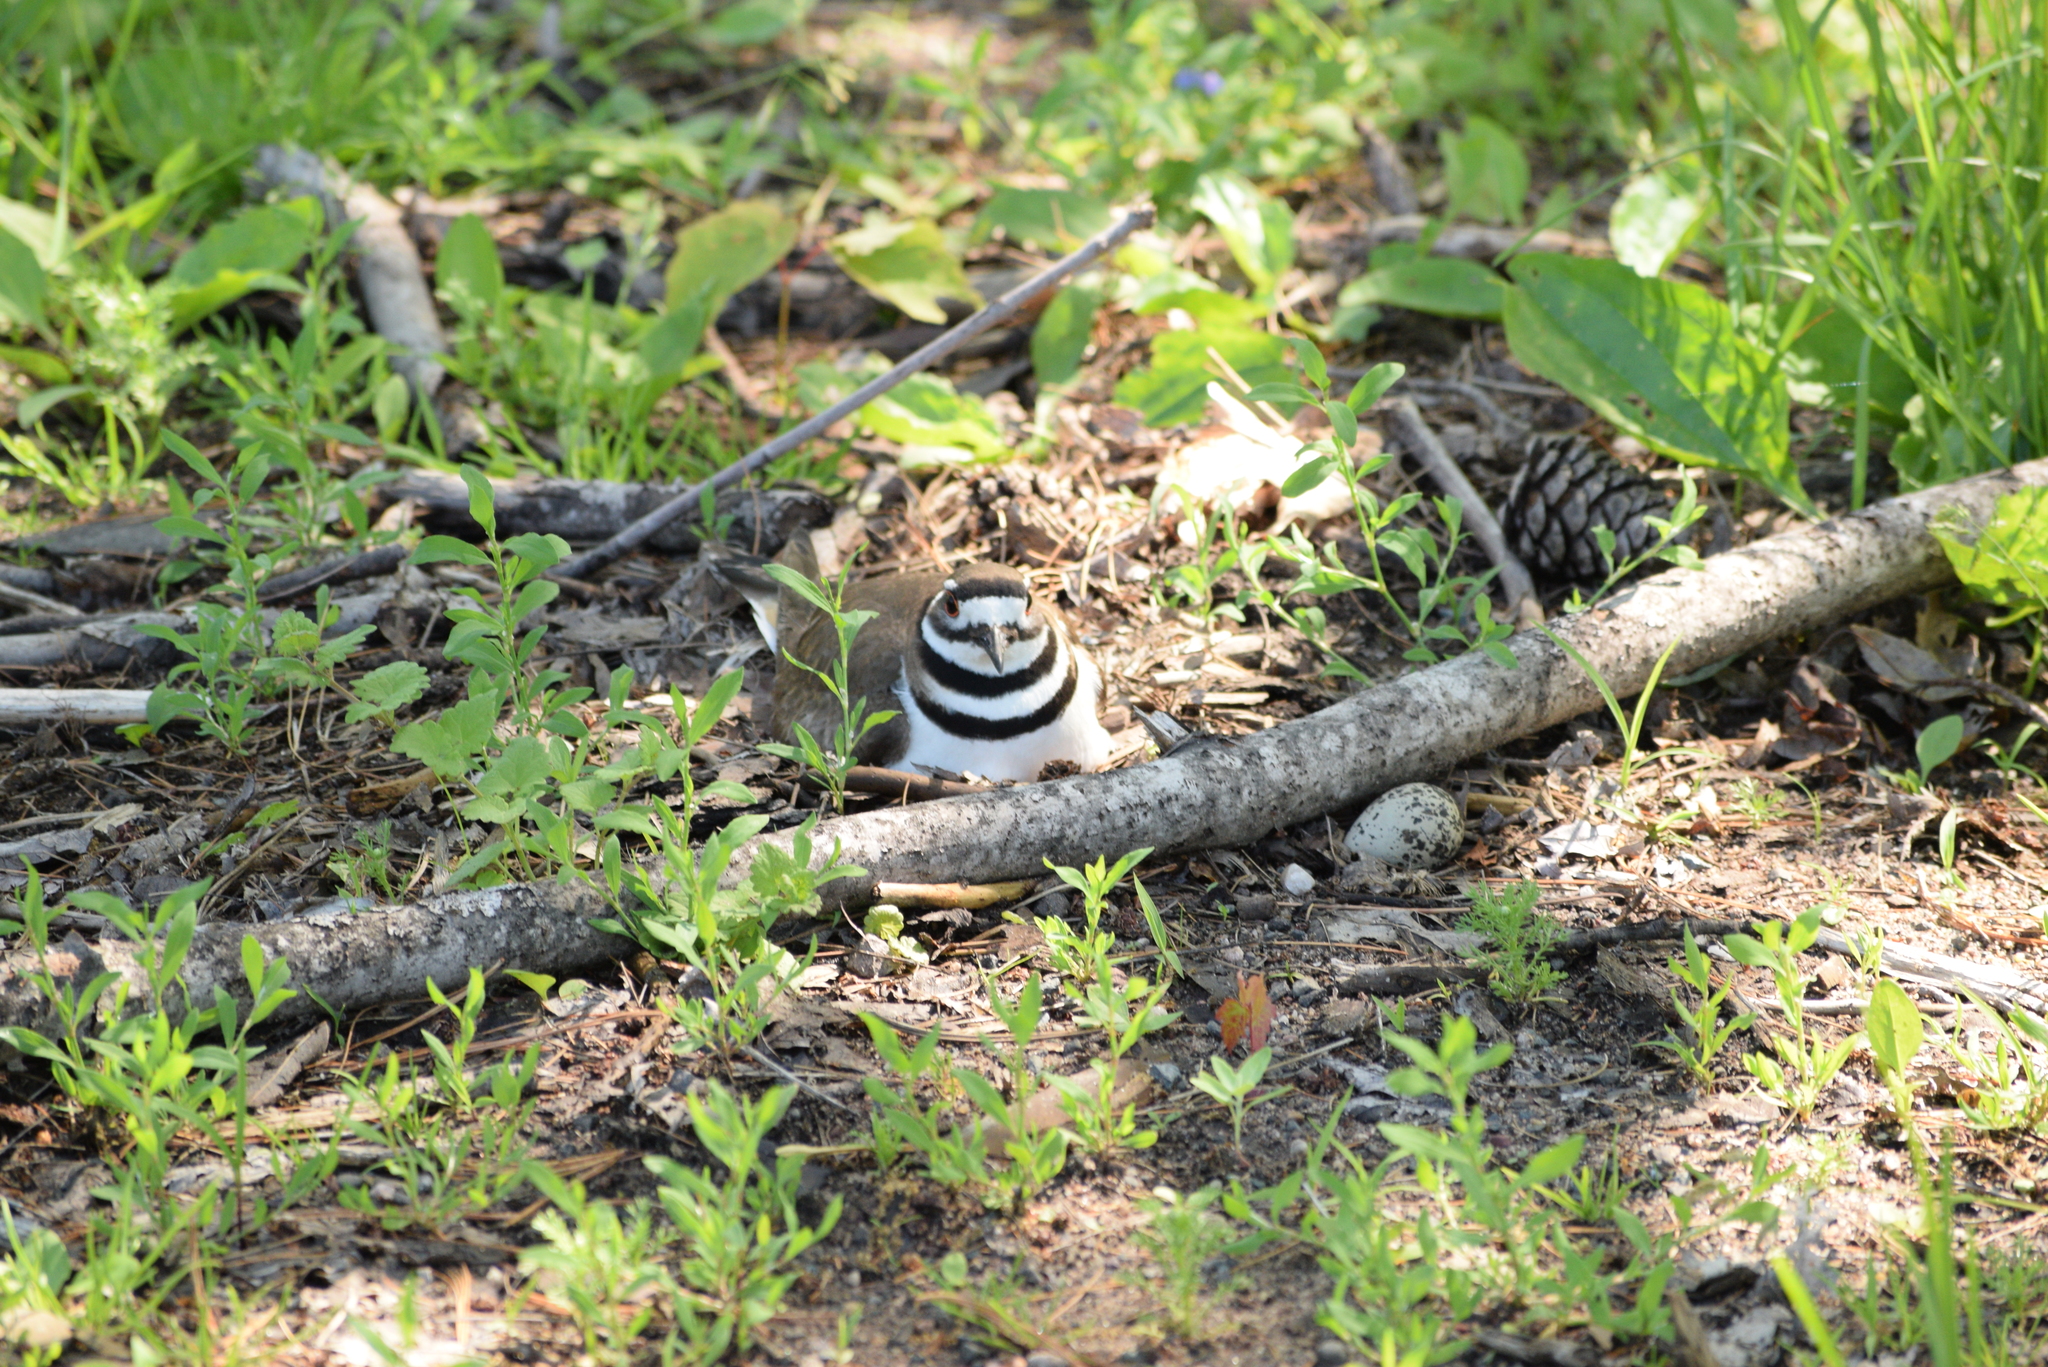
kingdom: Animalia
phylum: Chordata
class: Aves
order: Charadriiformes
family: Charadriidae
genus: Charadrius
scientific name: Charadrius vociferus
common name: Killdeer
